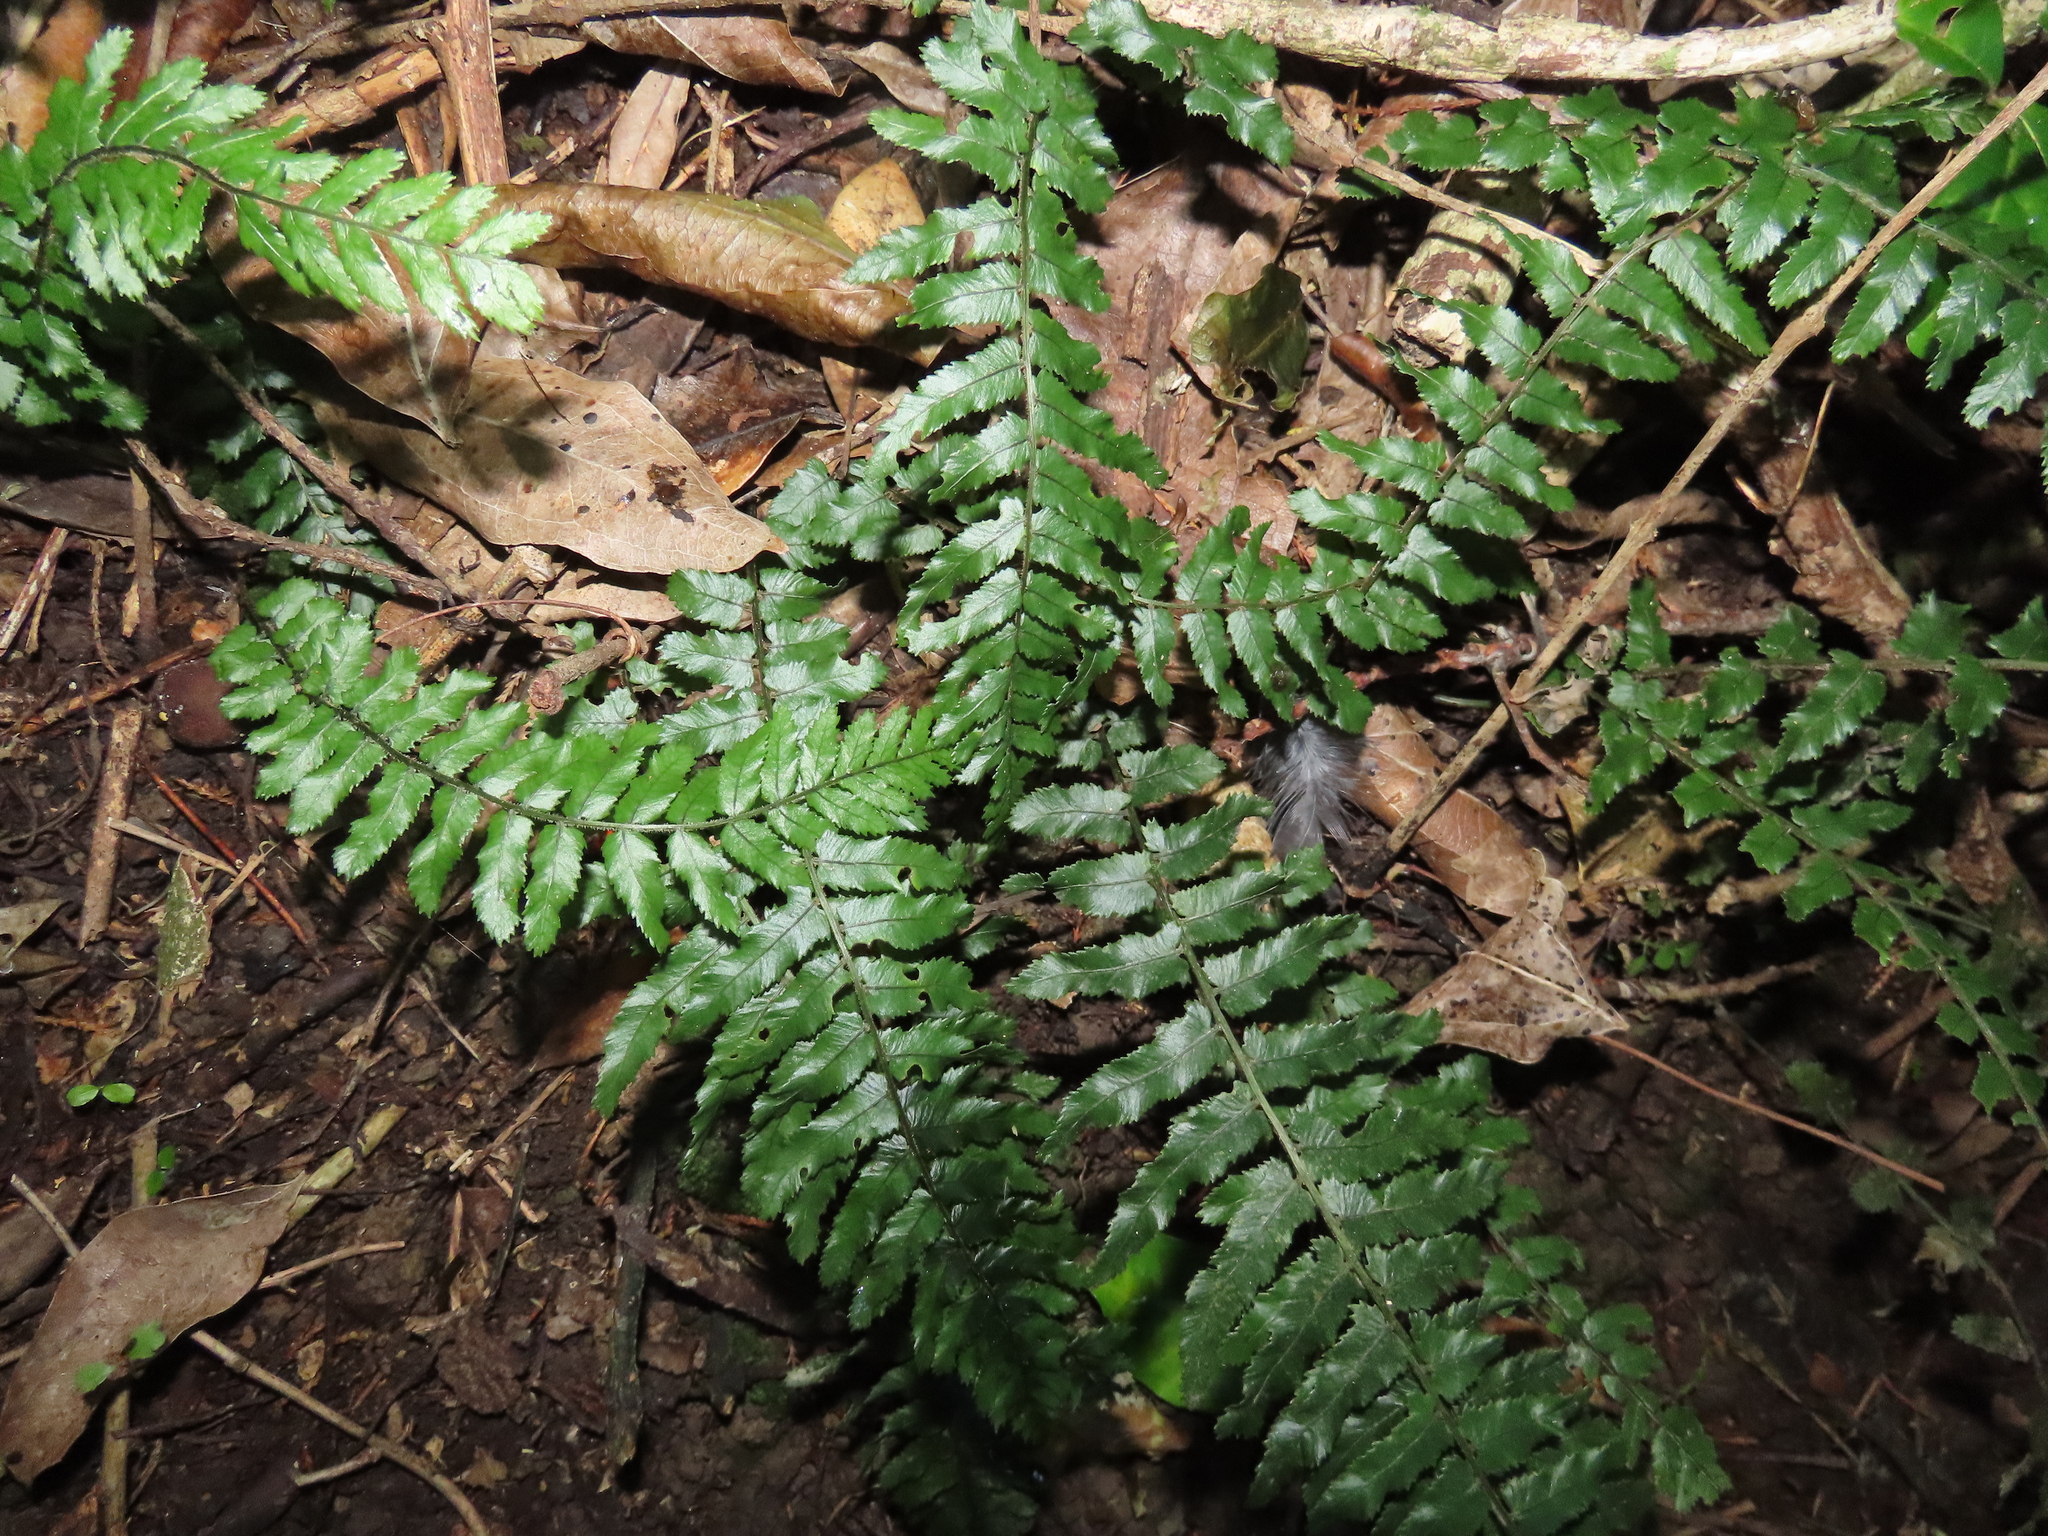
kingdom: Plantae
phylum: Tracheophyta
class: Polypodiopsida
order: Polypodiales
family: Blechnaceae
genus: Icarus
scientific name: Icarus filiformis
